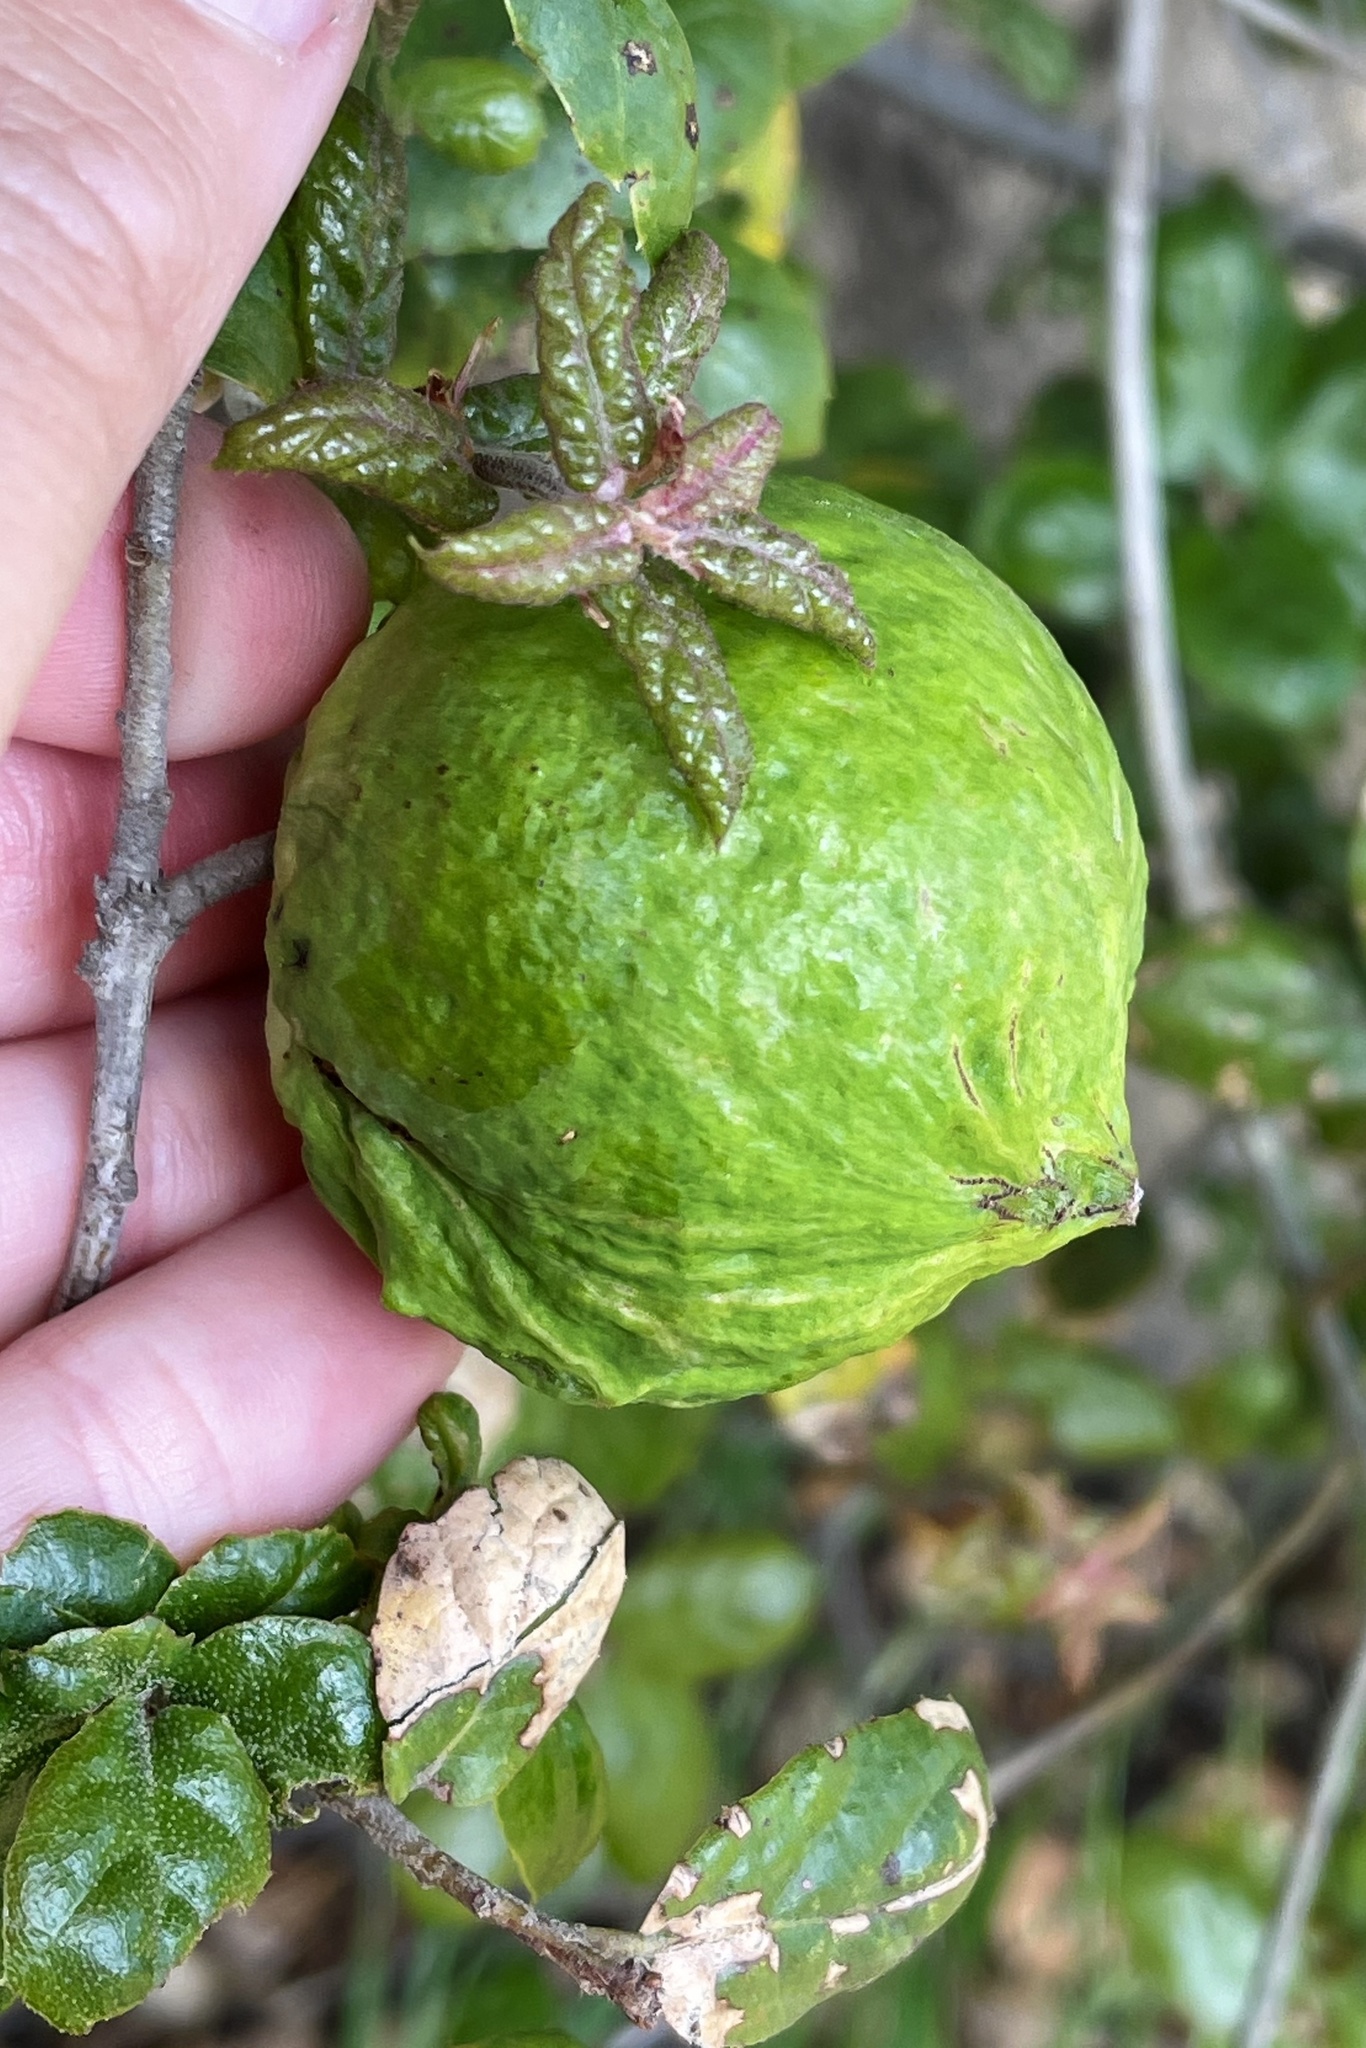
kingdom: Animalia
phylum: Arthropoda
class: Insecta
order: Hymenoptera
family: Cynipidae
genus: Amphibolips
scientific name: Amphibolips quercuspomiformis
